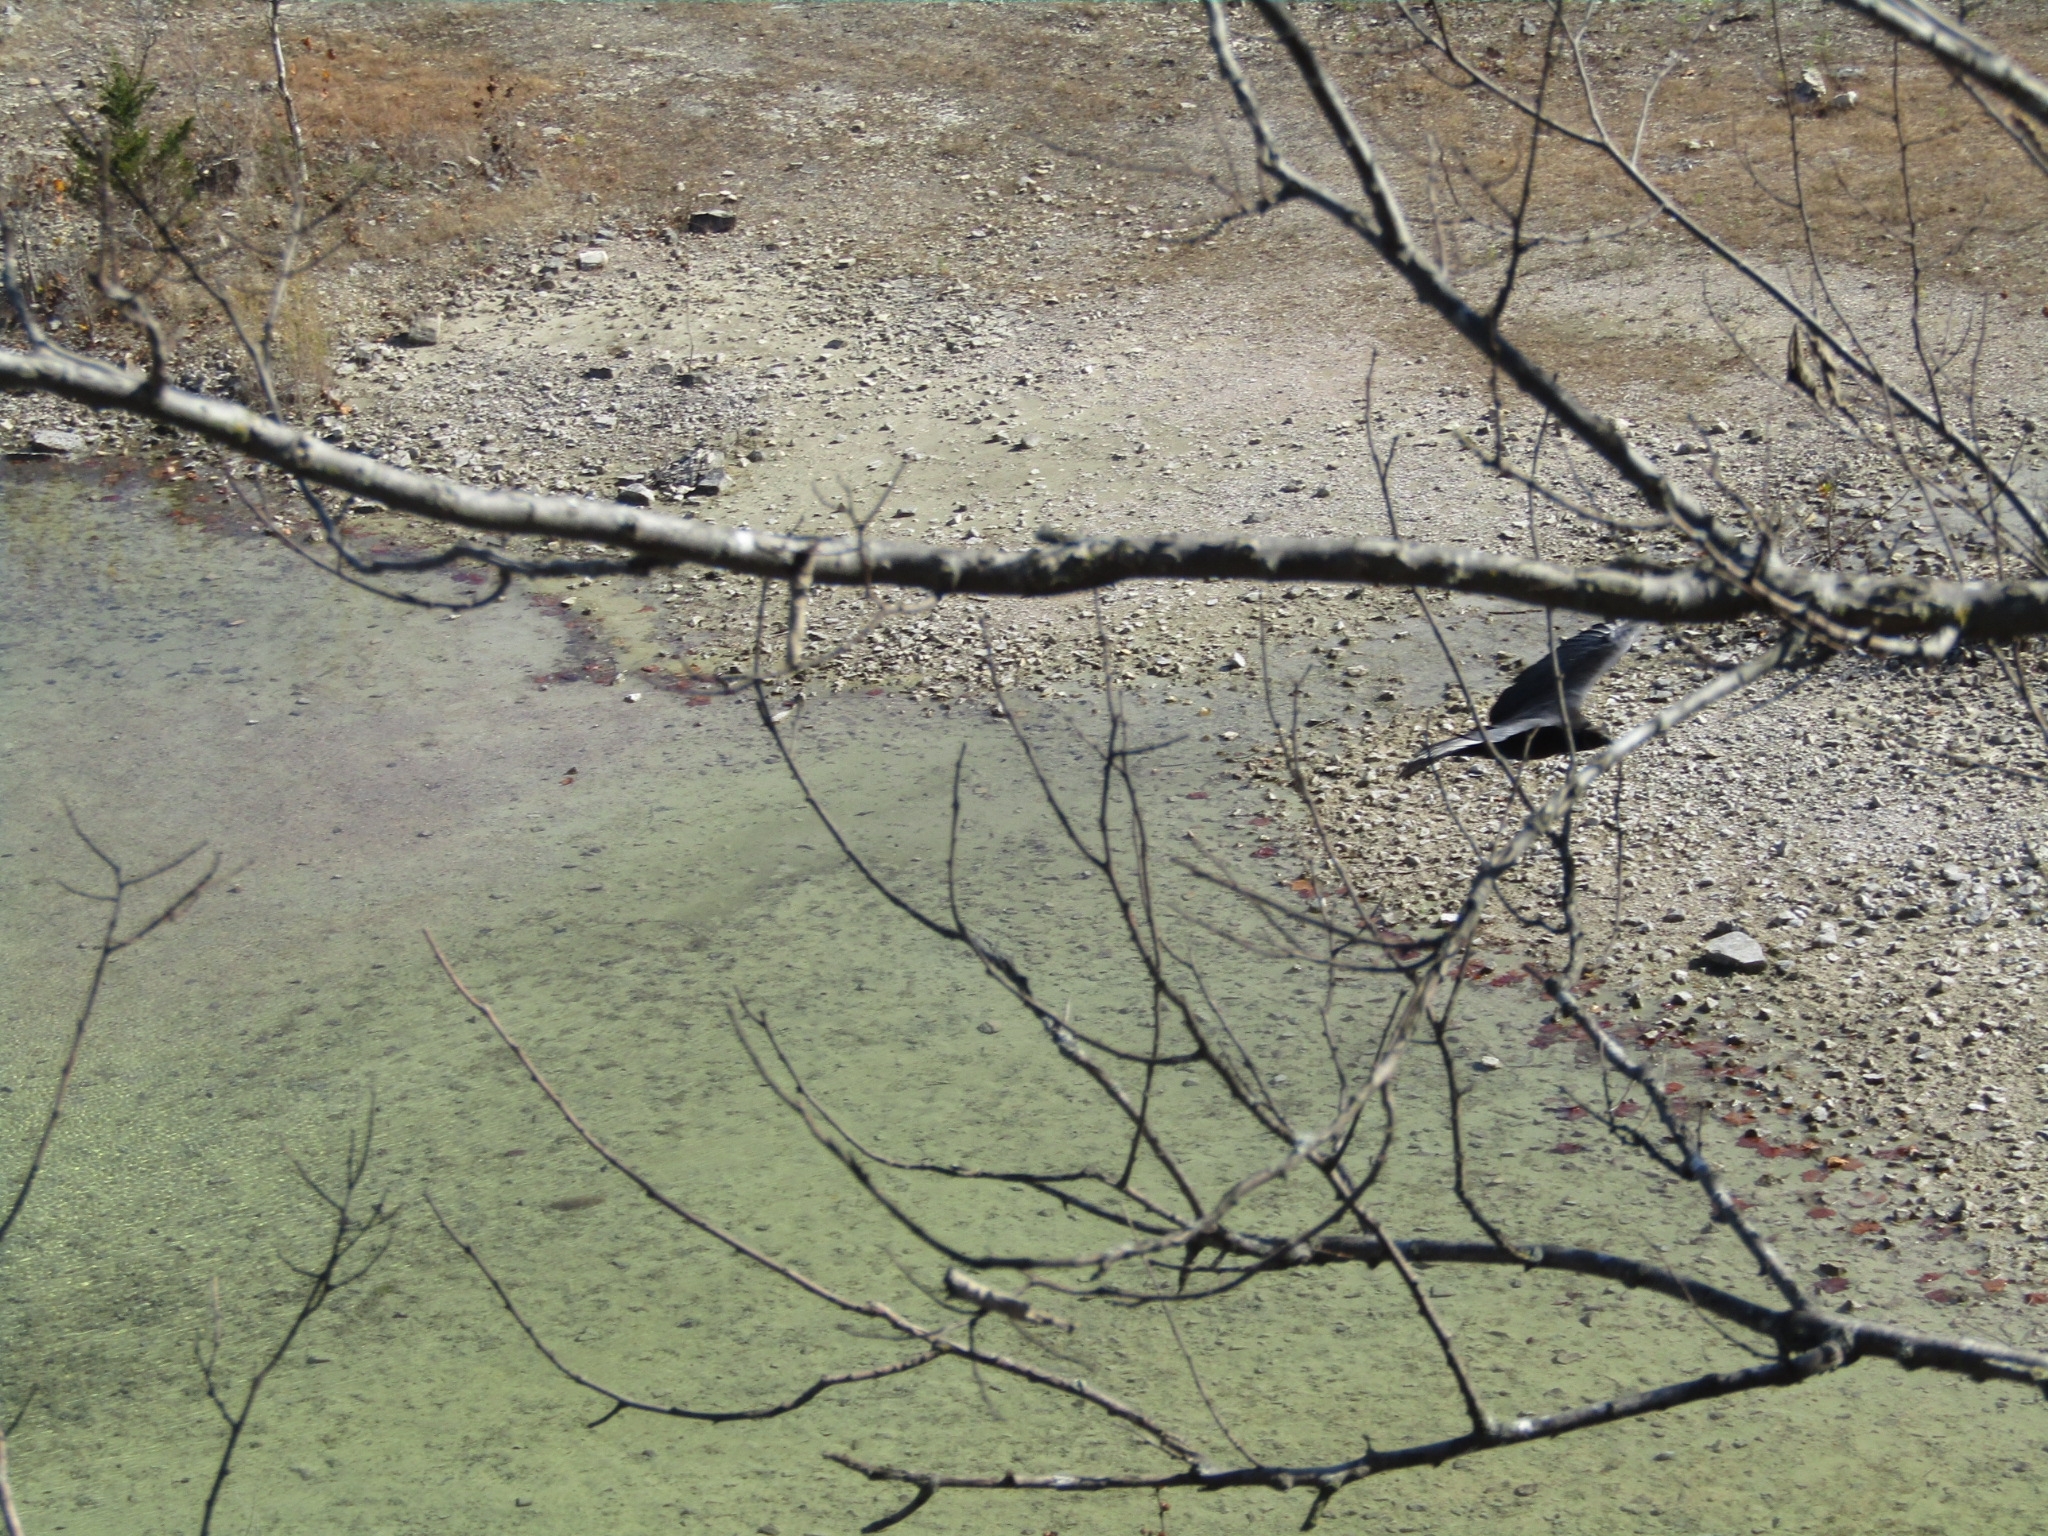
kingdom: Animalia
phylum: Chordata
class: Aves
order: Accipitriformes
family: Cathartidae
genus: Coragyps
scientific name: Coragyps atratus
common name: Black vulture
